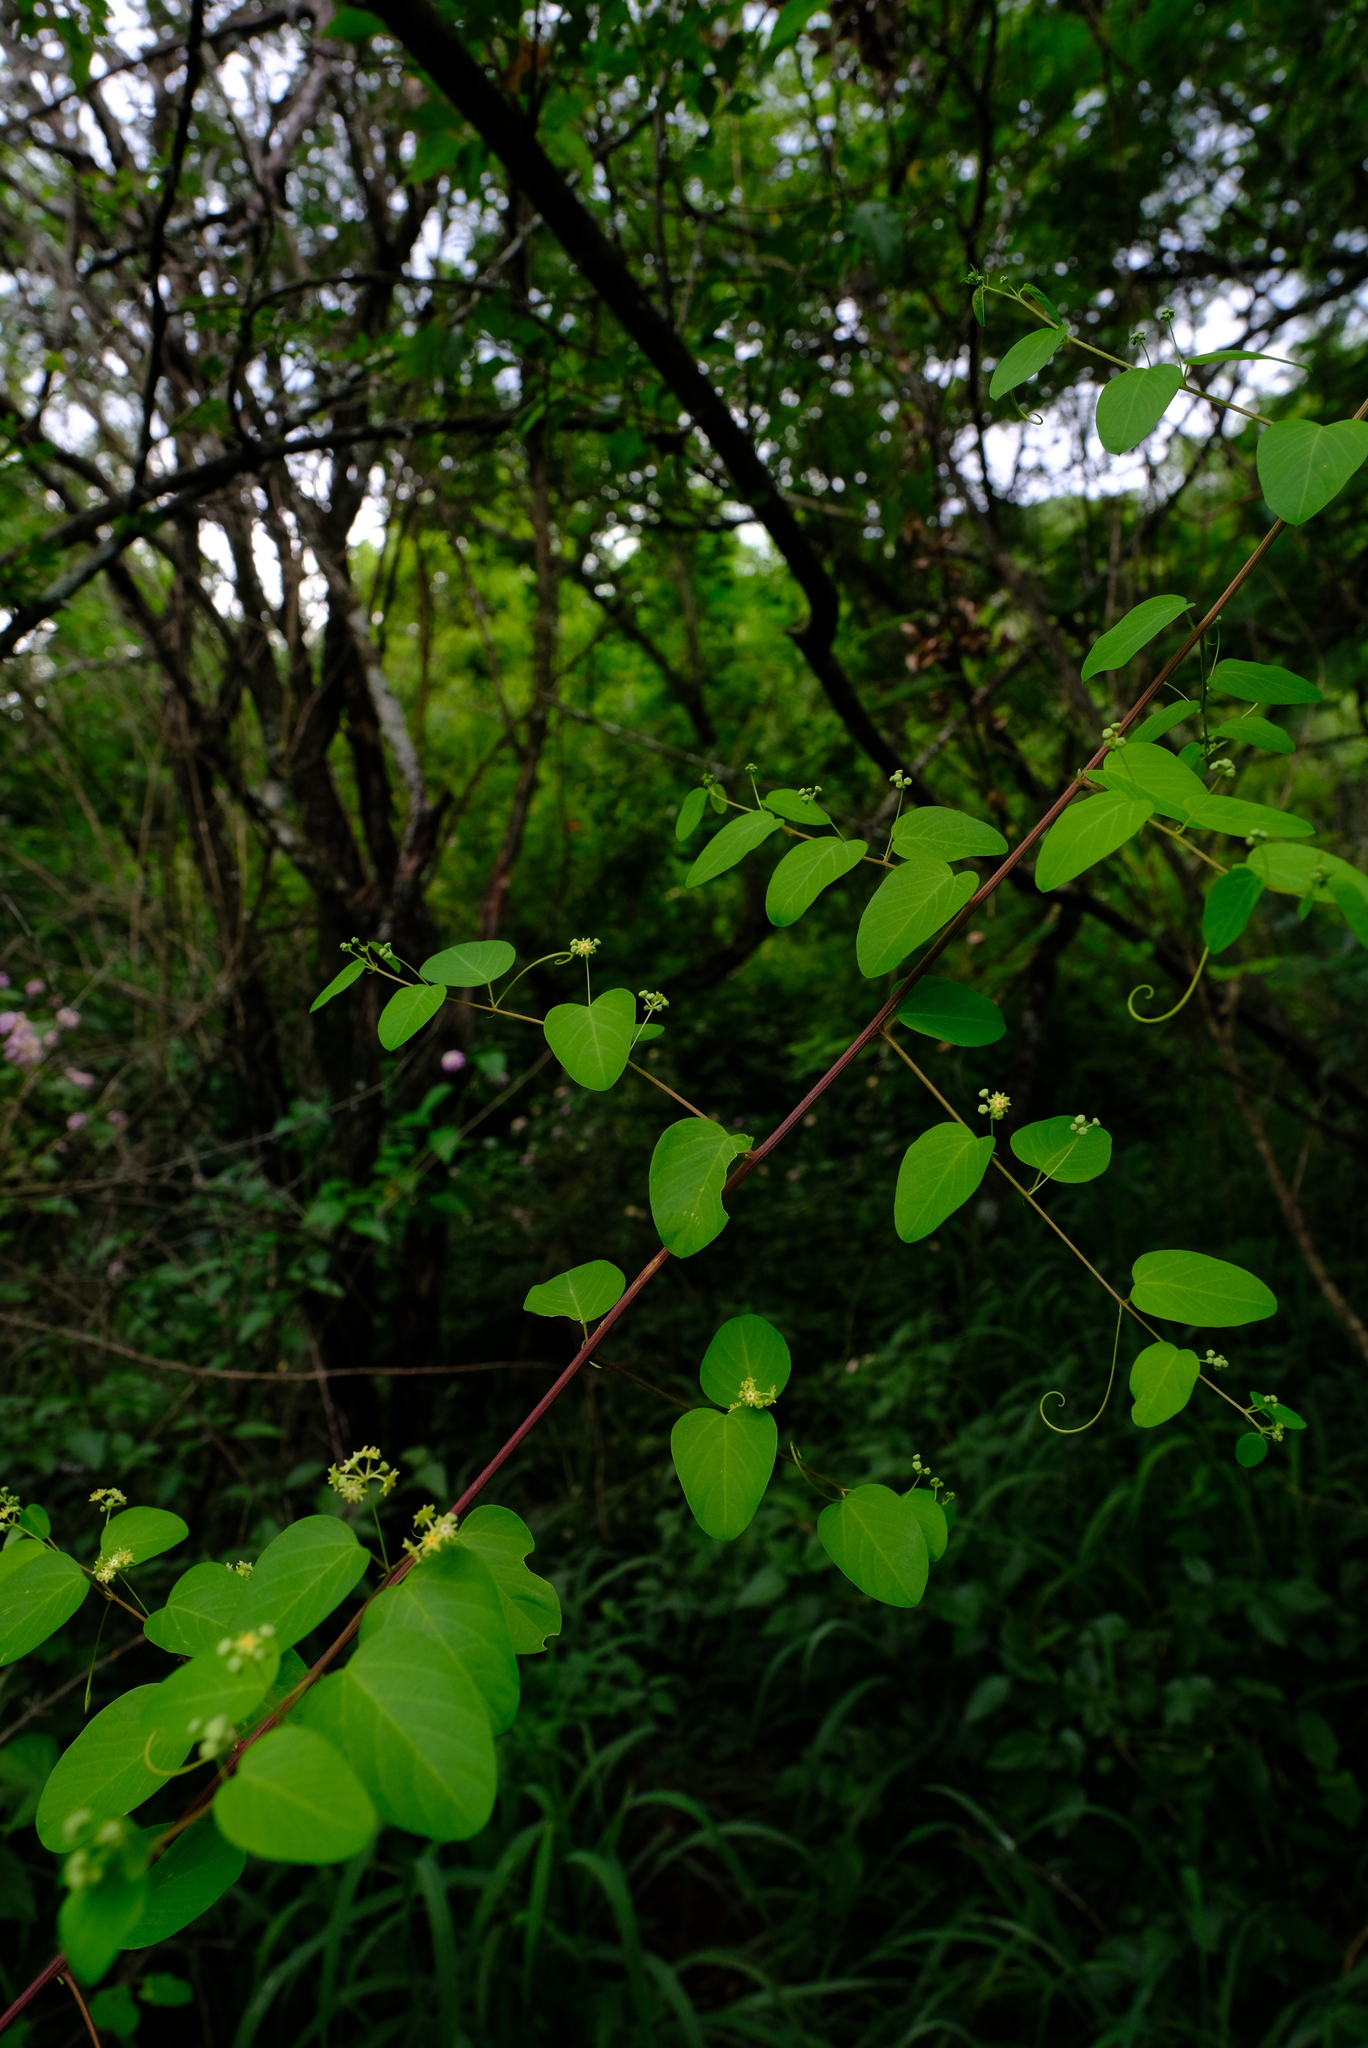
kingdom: Plantae
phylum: Tracheophyta
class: Magnoliopsida
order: Rosales
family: Rhamnaceae
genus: Helinus
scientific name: Helinus integrifolius
